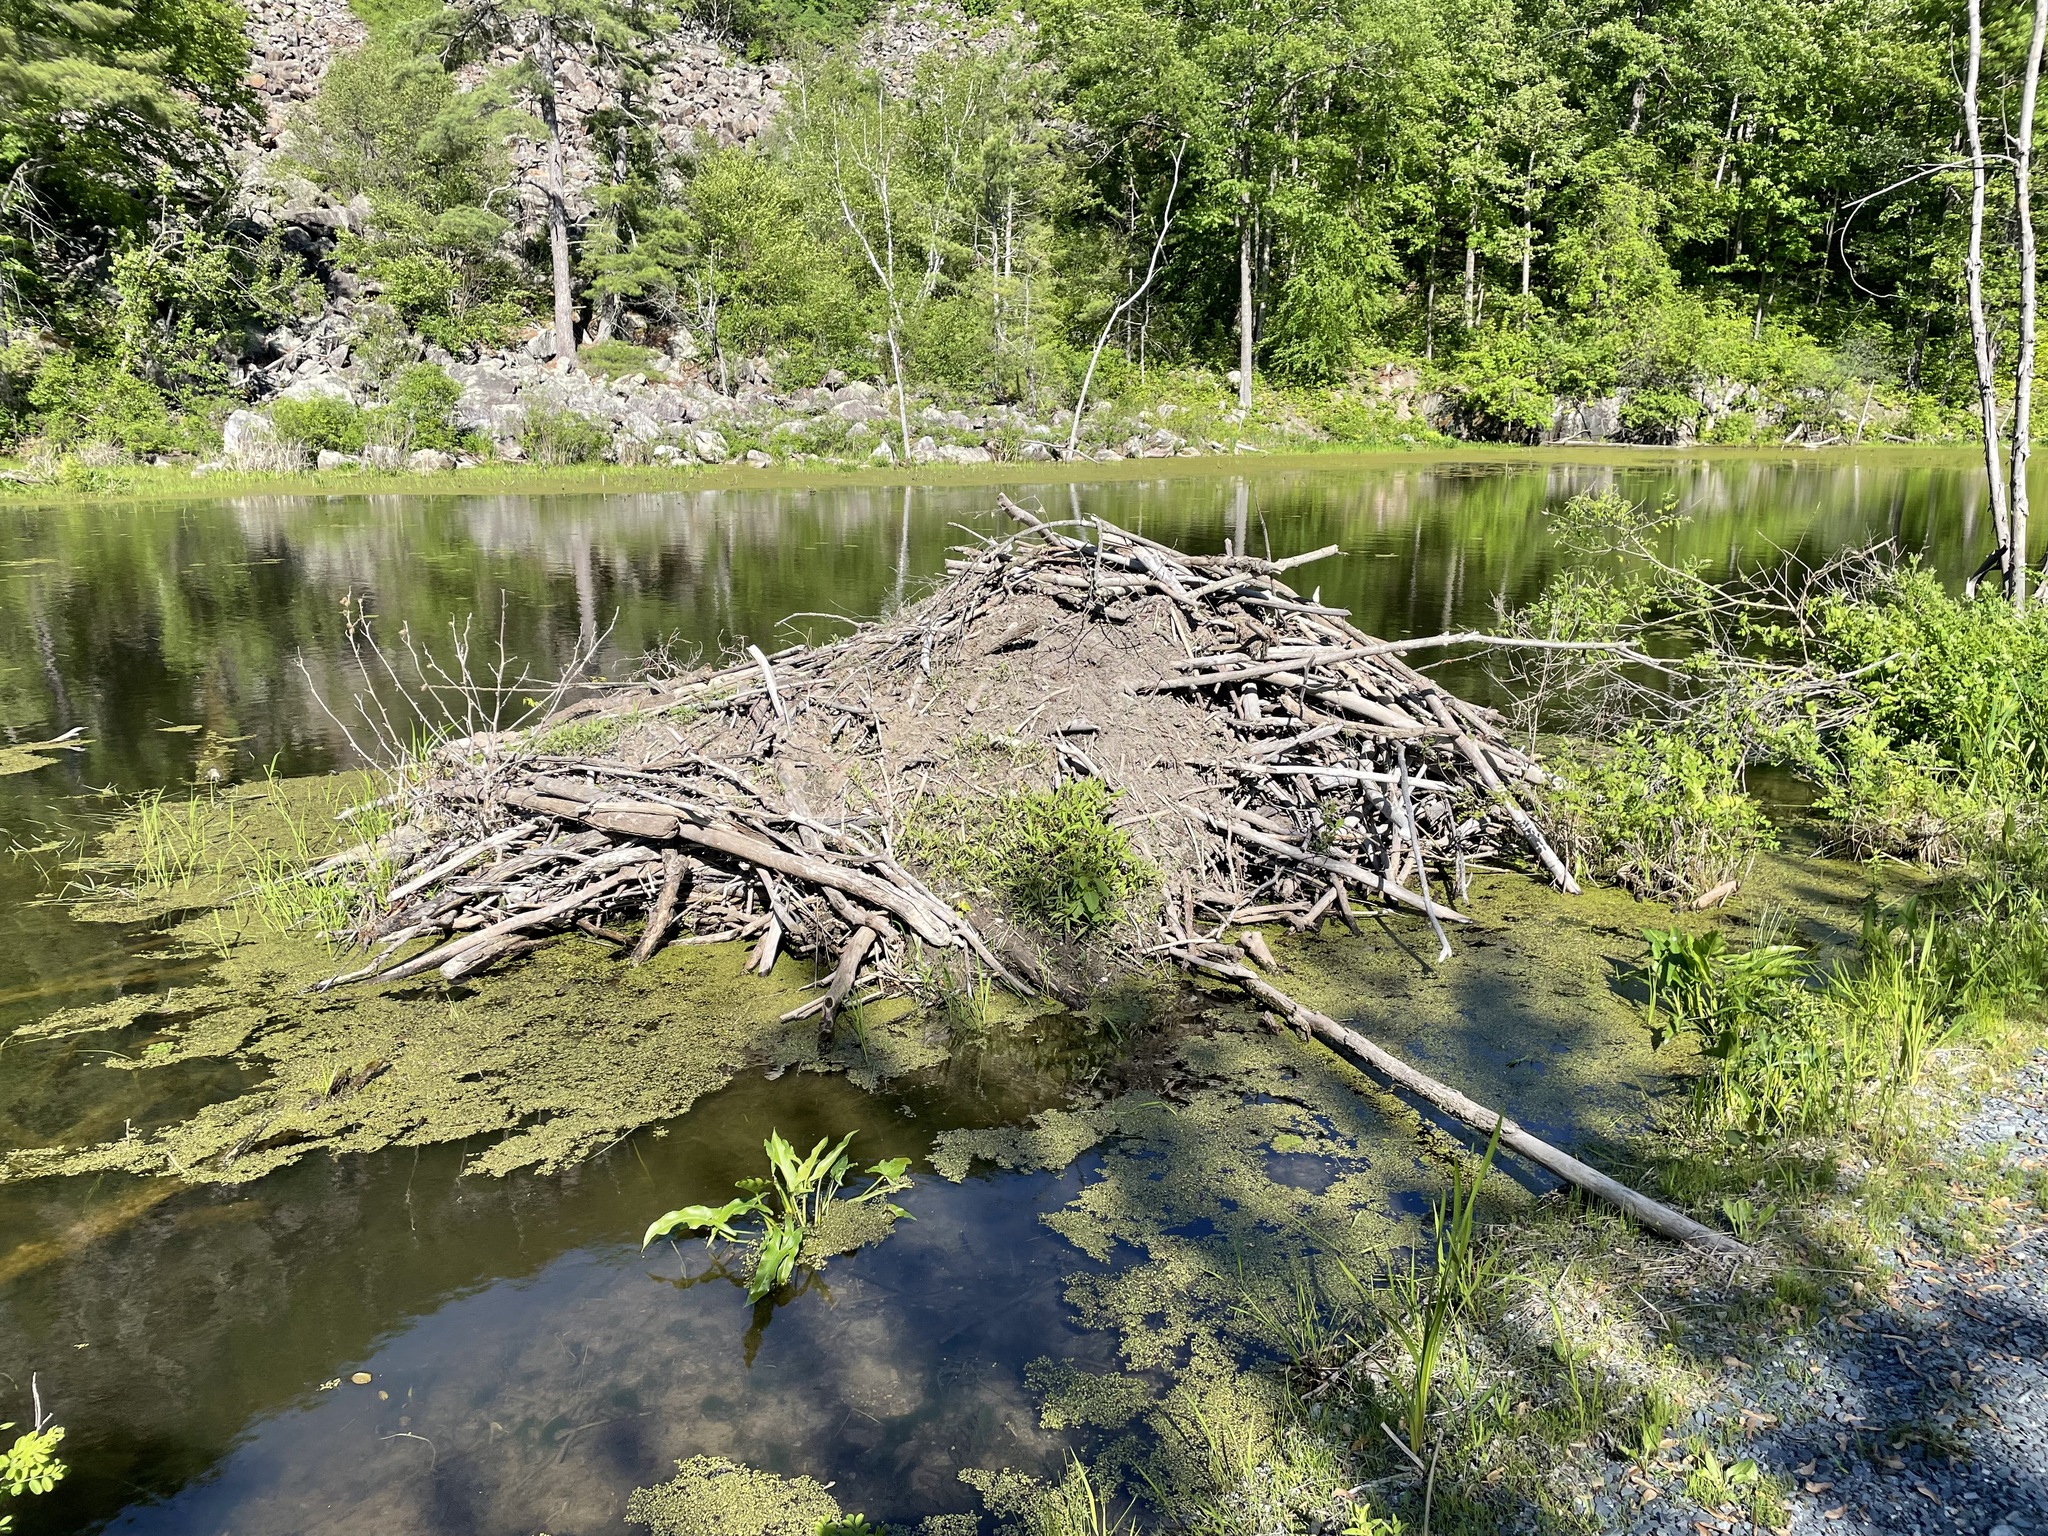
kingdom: Animalia
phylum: Chordata
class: Mammalia
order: Rodentia
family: Castoridae
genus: Castor
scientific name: Castor canadensis
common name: American beaver
